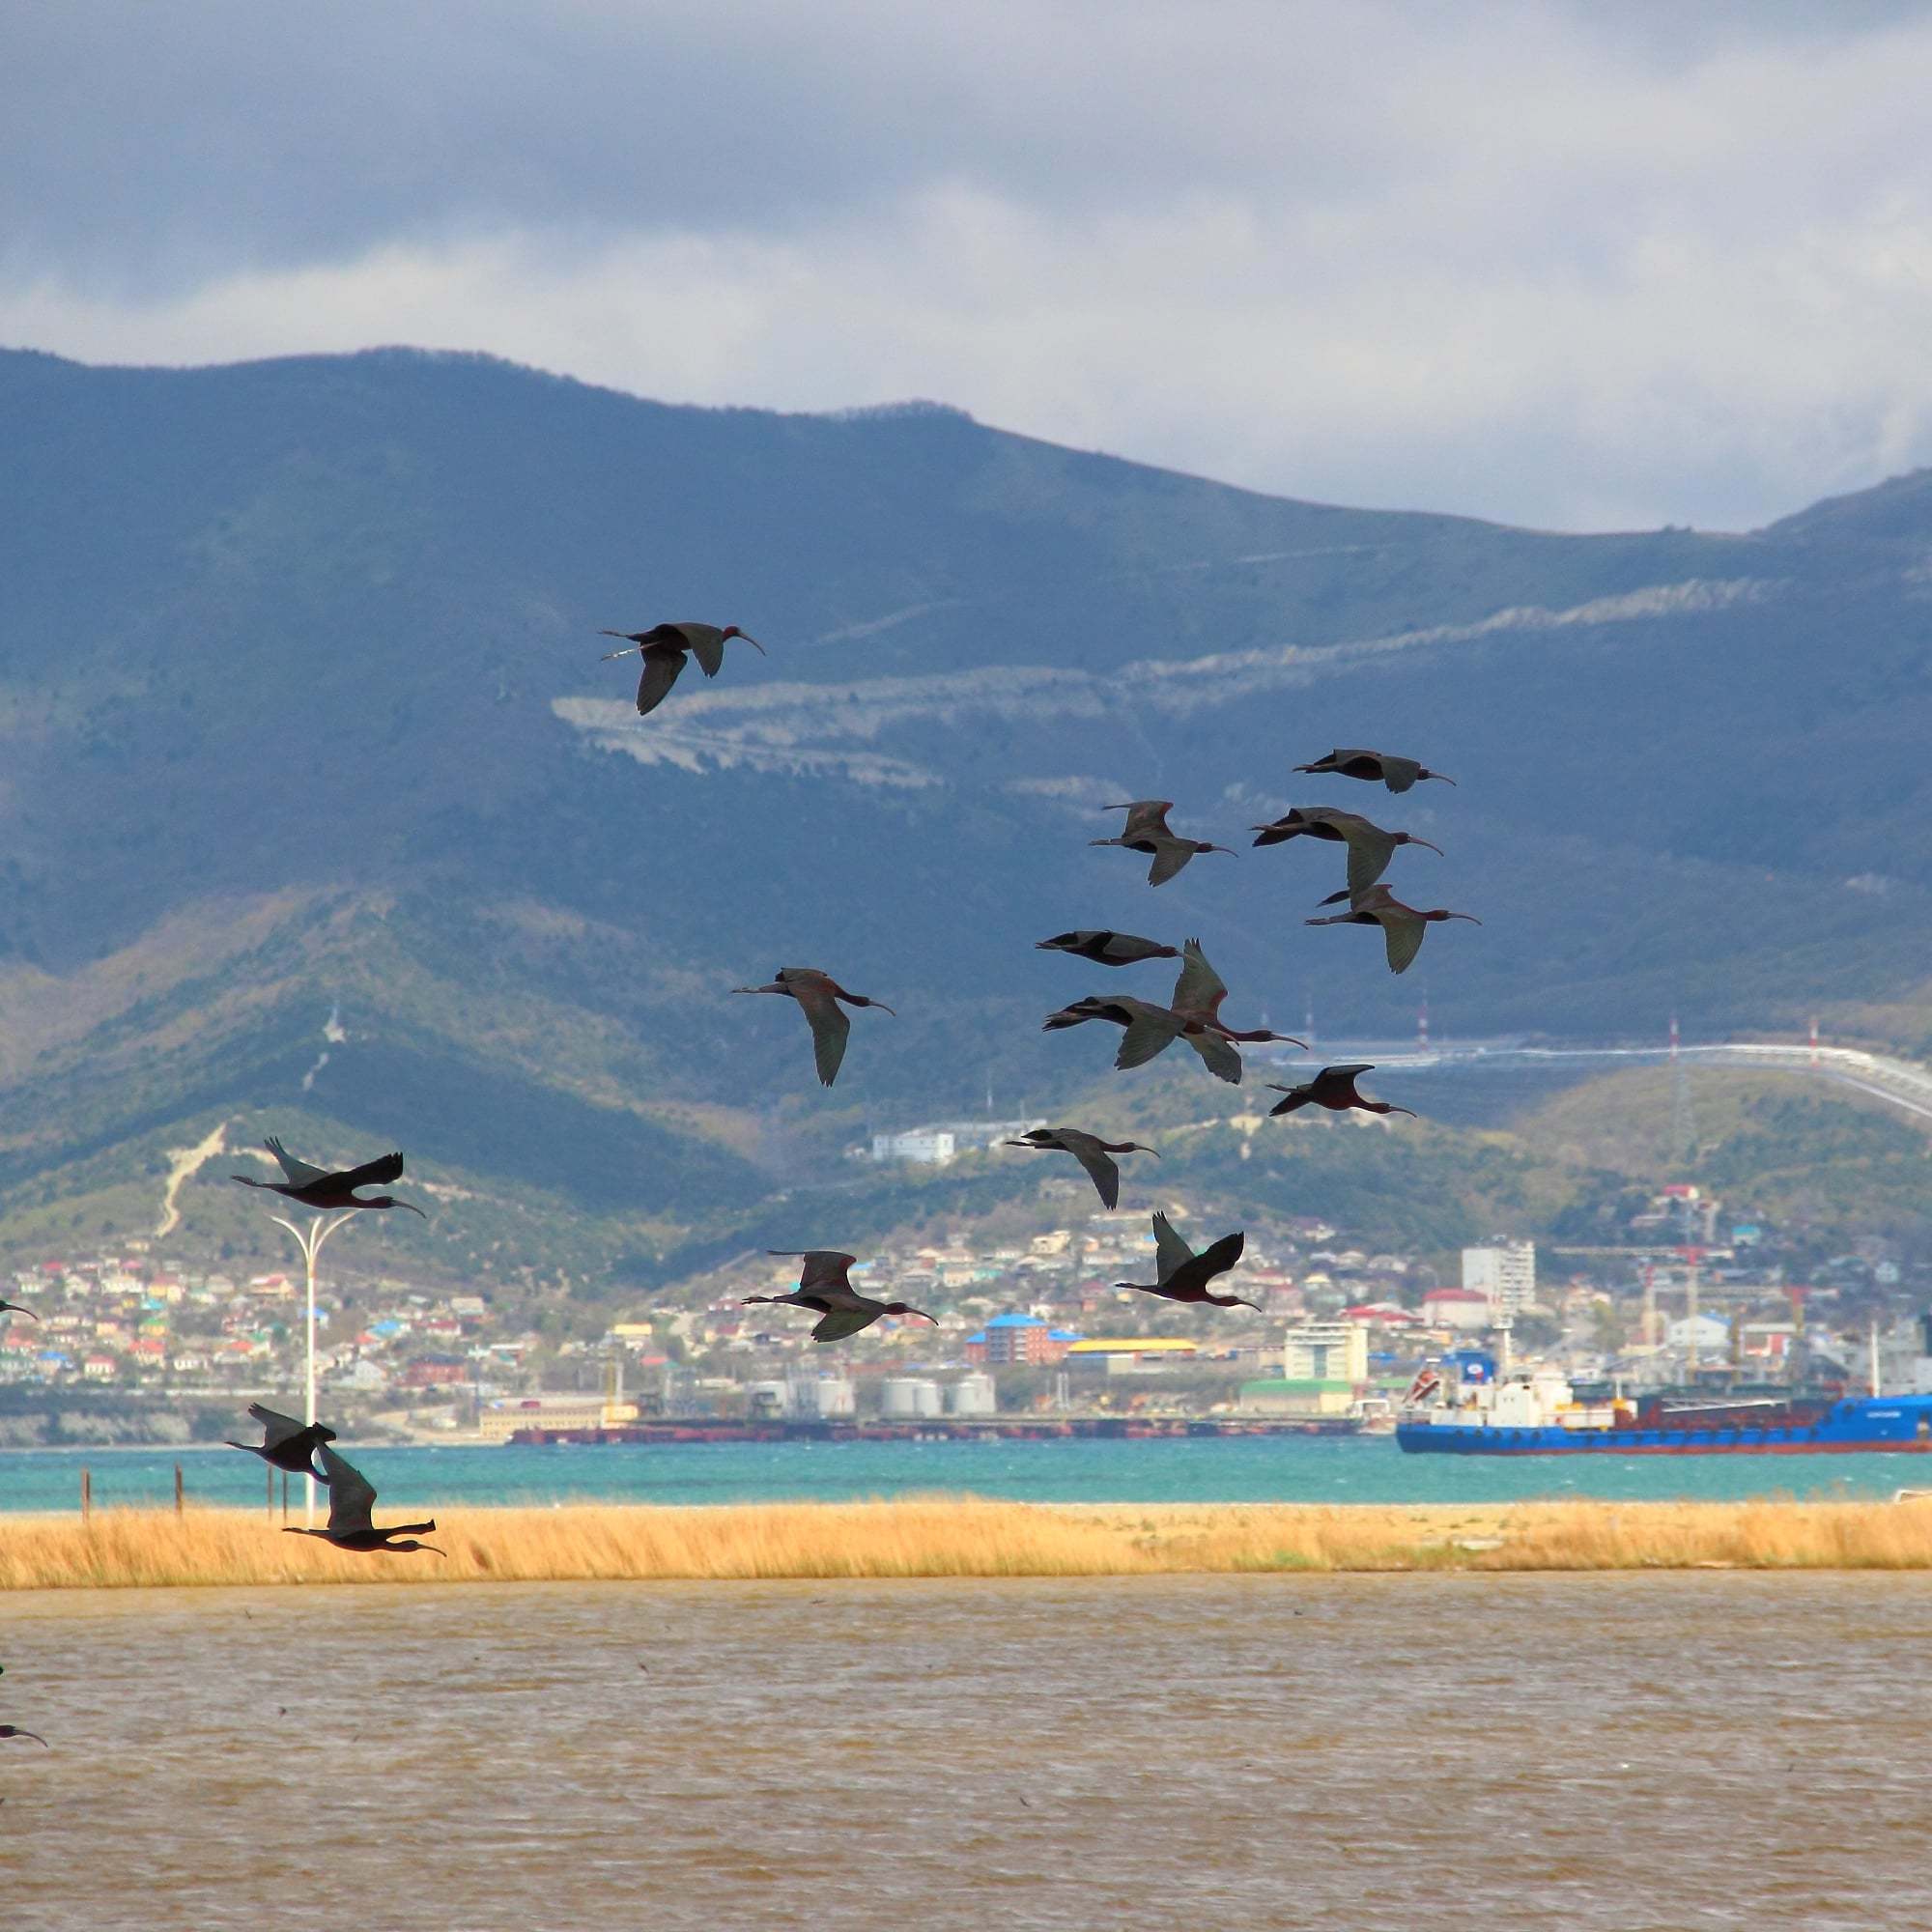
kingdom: Animalia
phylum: Chordata
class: Aves
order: Pelecaniformes
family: Threskiornithidae
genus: Plegadis
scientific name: Plegadis falcinellus
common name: Glossy ibis
